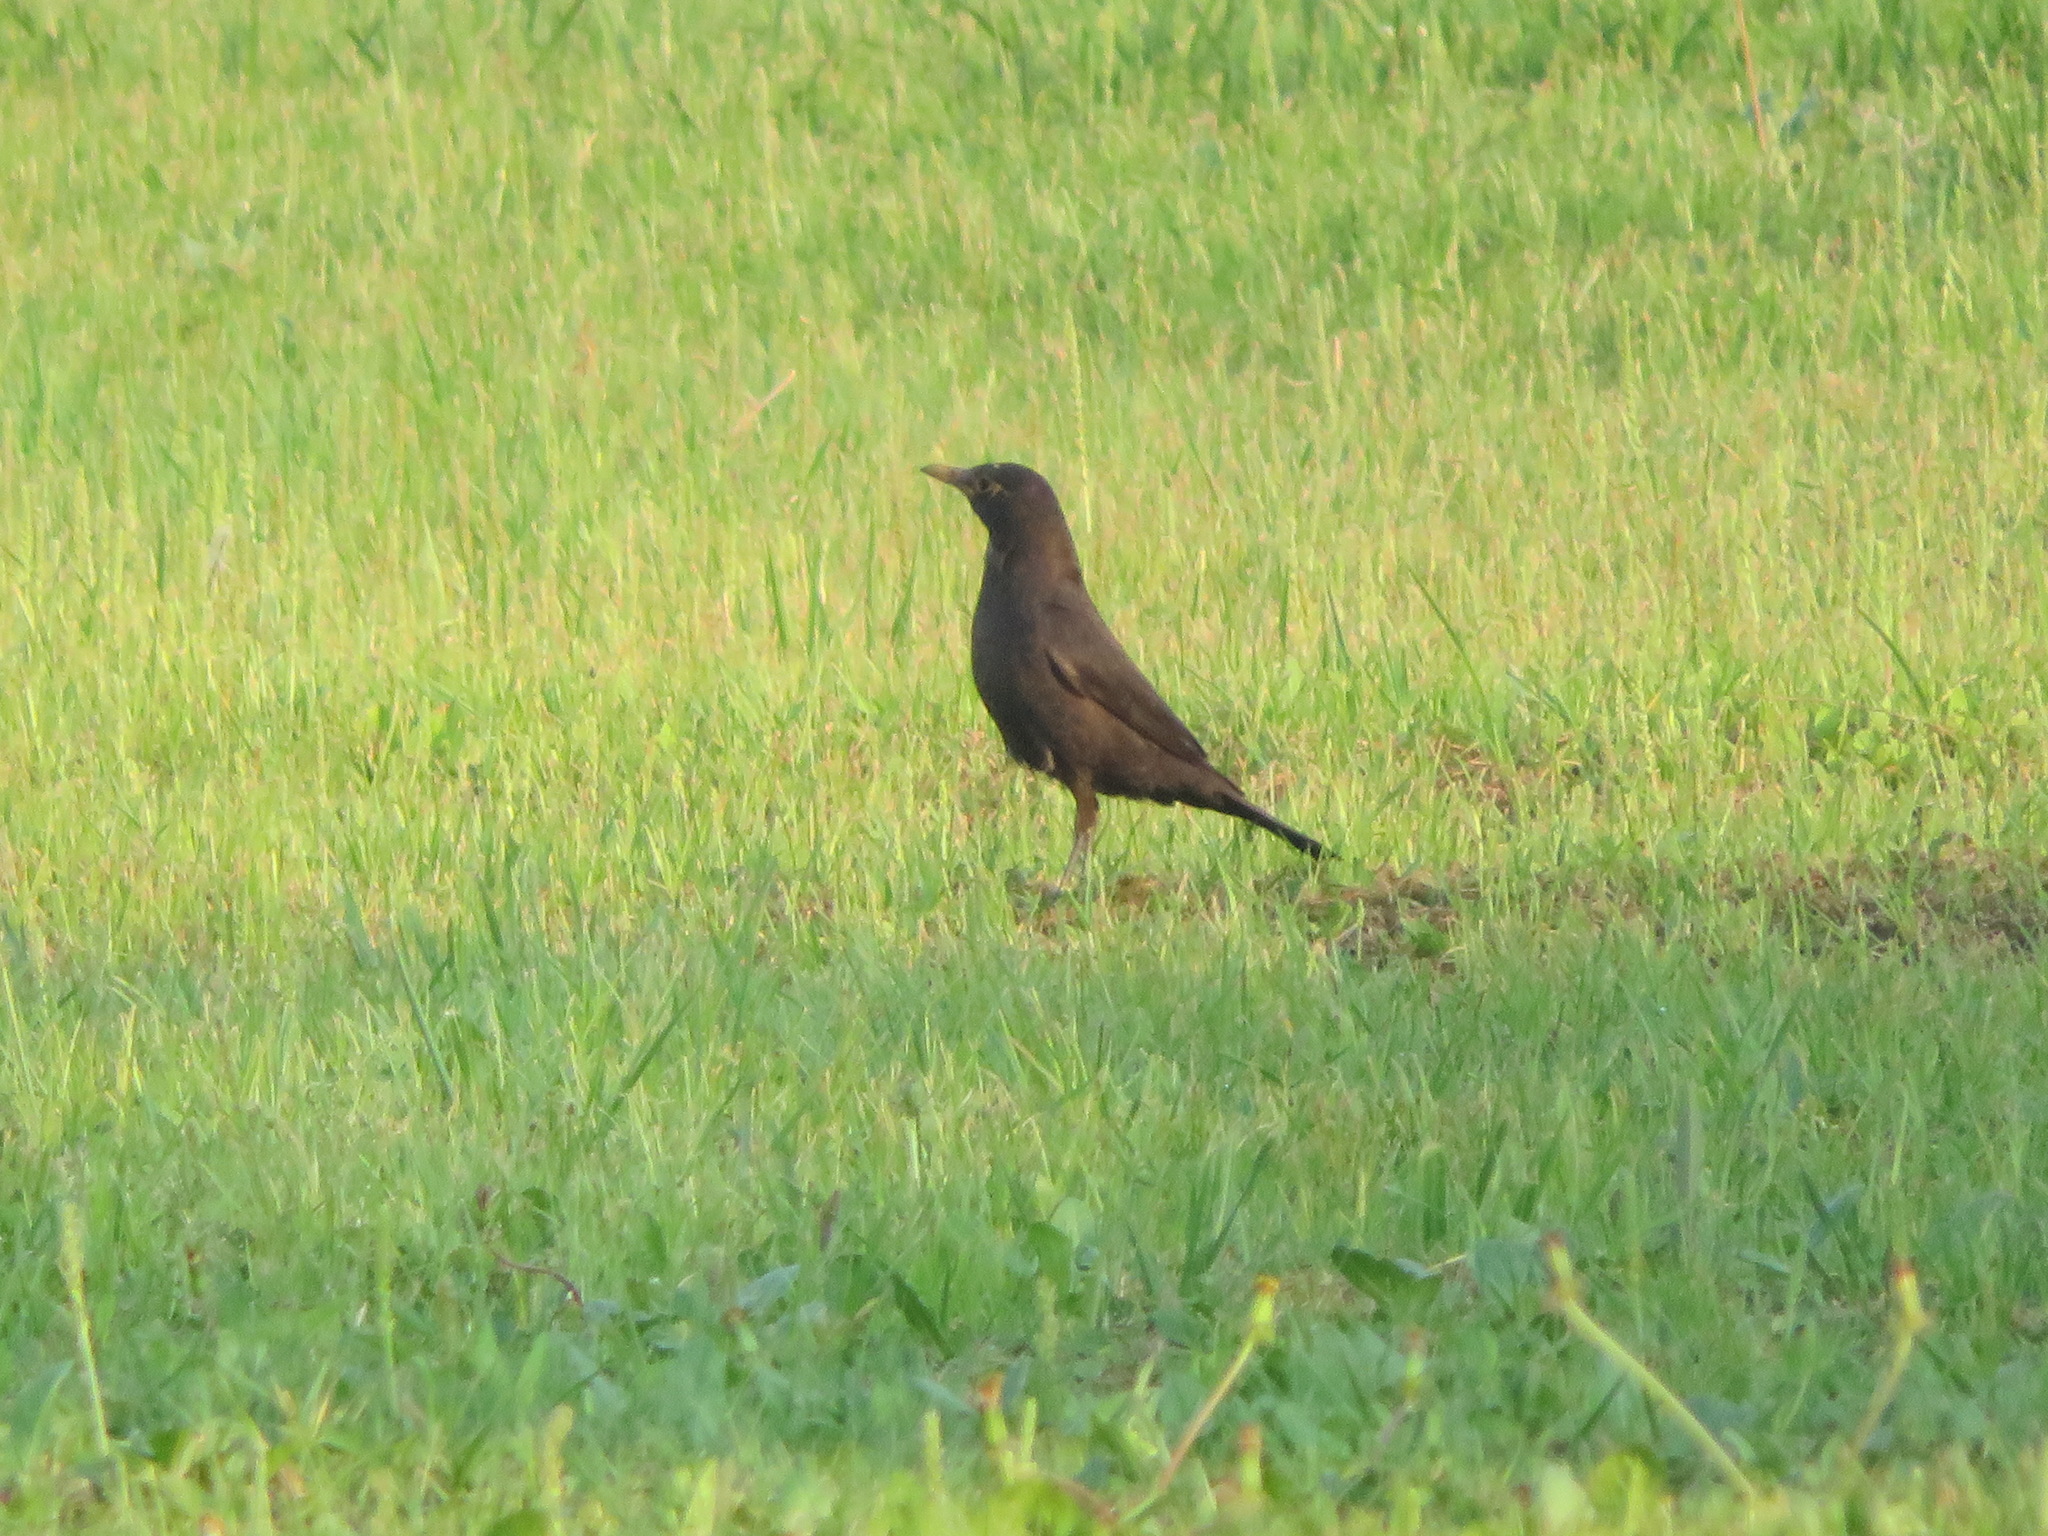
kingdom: Animalia
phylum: Chordata
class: Aves
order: Passeriformes
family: Turdidae
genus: Turdus
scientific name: Turdus mandarinus
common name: Chinese blackbird
